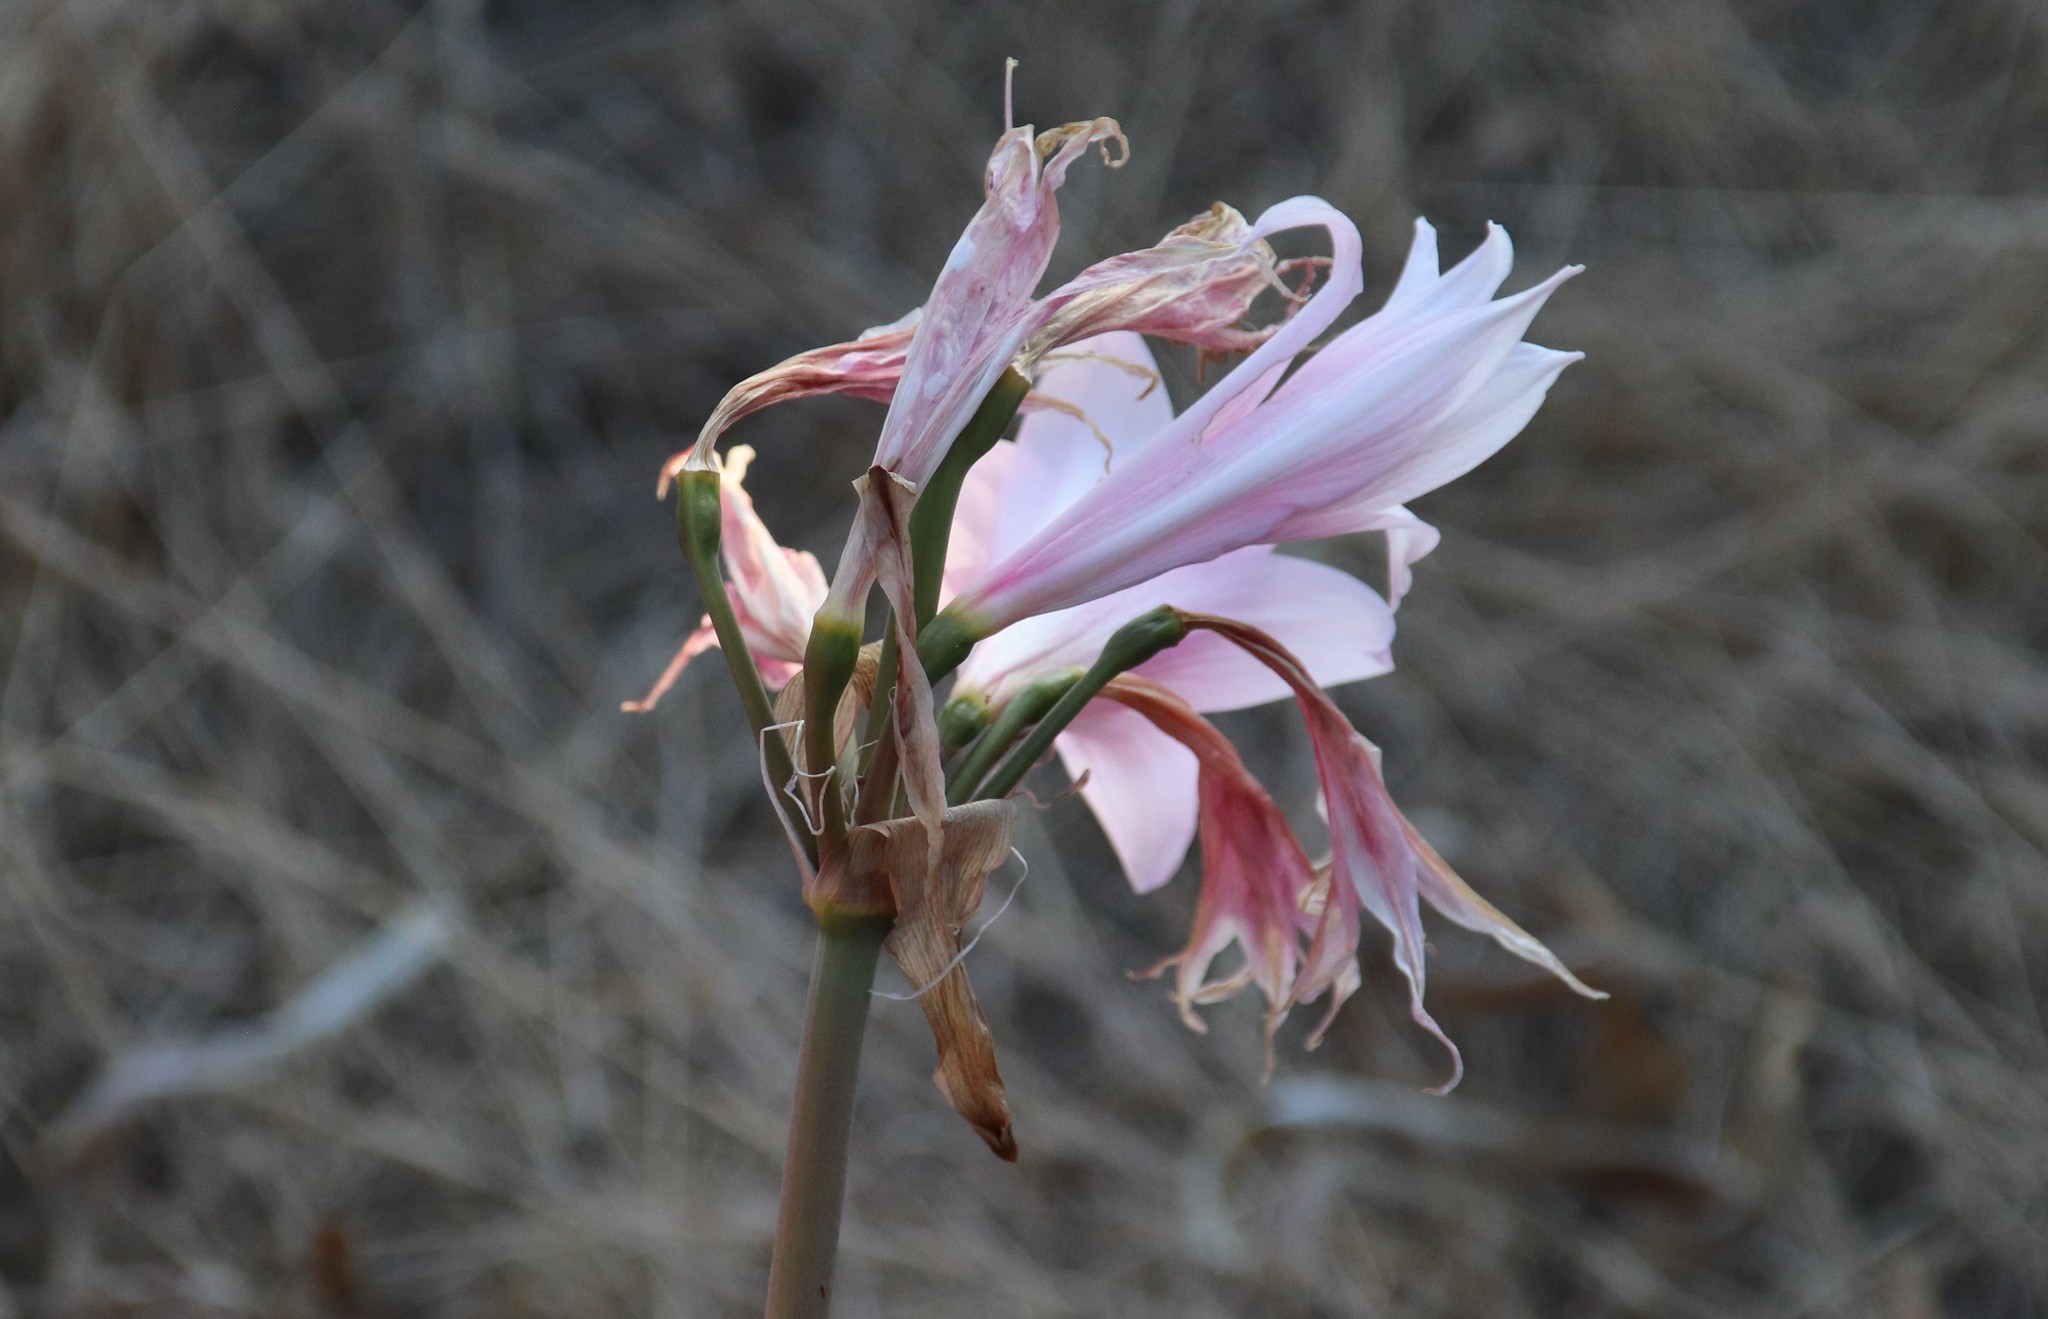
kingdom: Plantae
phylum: Tracheophyta
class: Liliopsida
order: Asparagales
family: Amaryllidaceae
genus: Amaryllis
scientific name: Amaryllis belladonna
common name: Jersey lily
